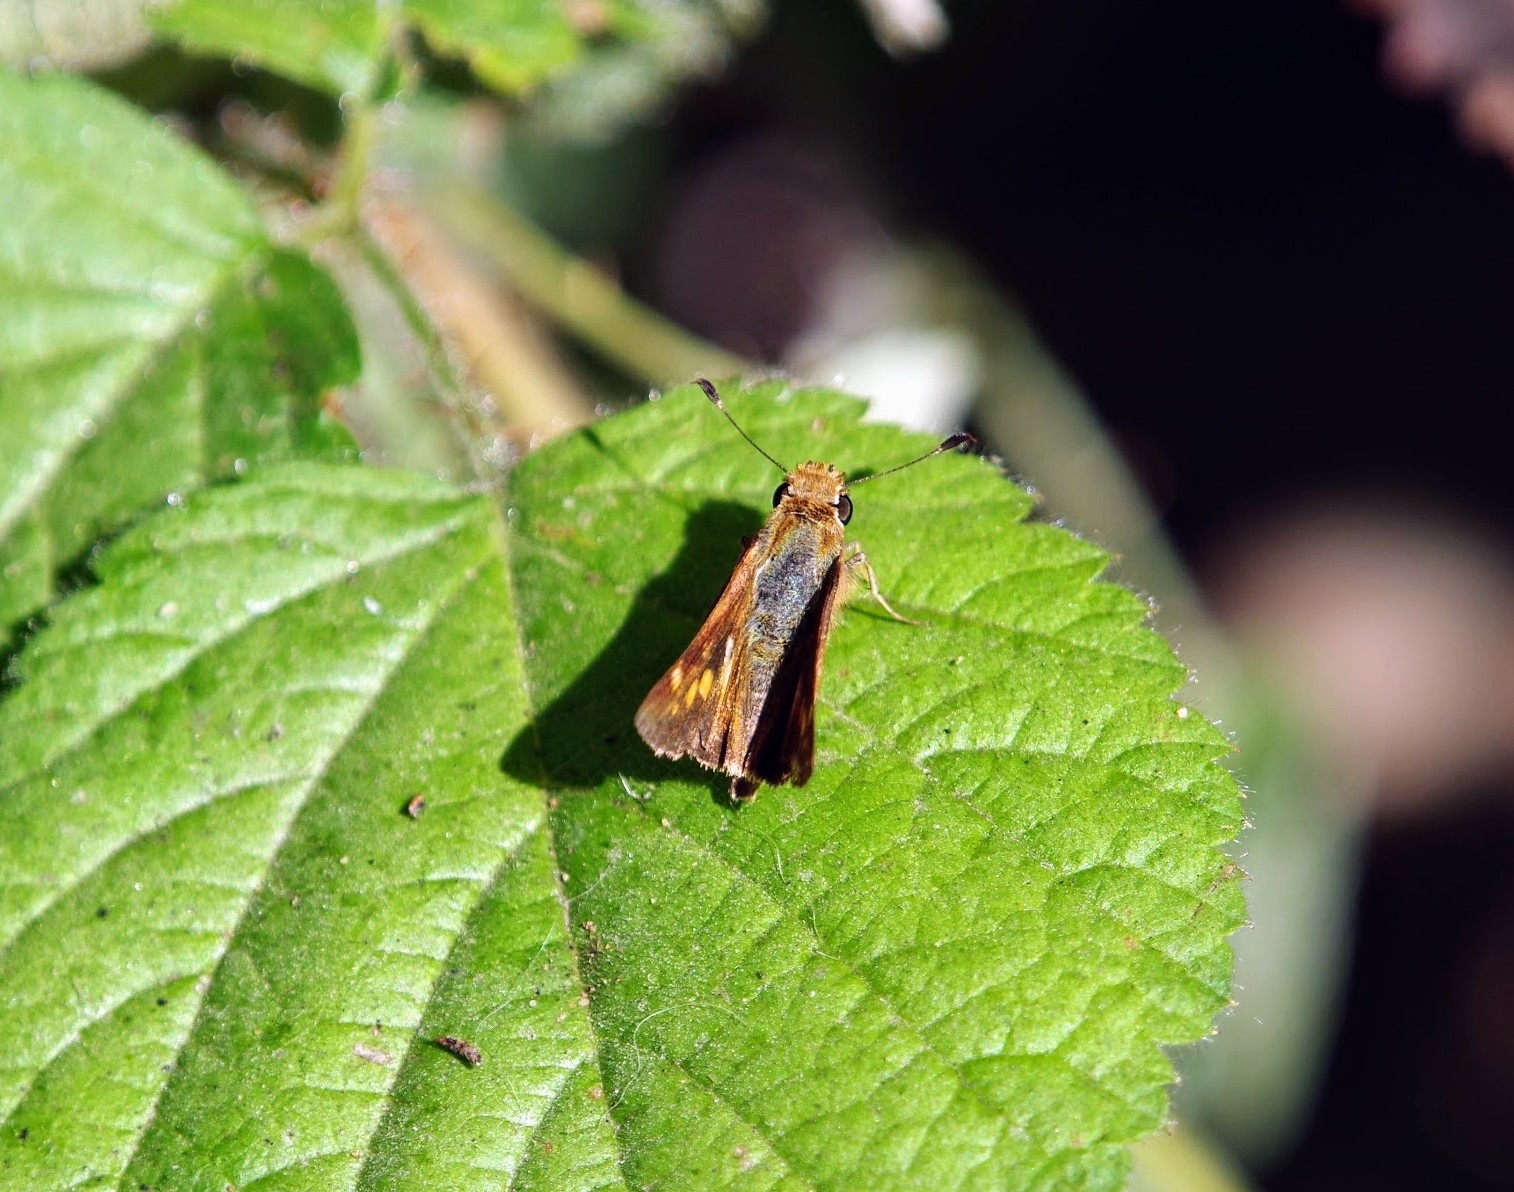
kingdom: Animalia
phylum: Arthropoda
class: Insecta
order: Lepidoptera
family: Hesperiidae
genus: Lon
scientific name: Lon melane
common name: Umber skipper
